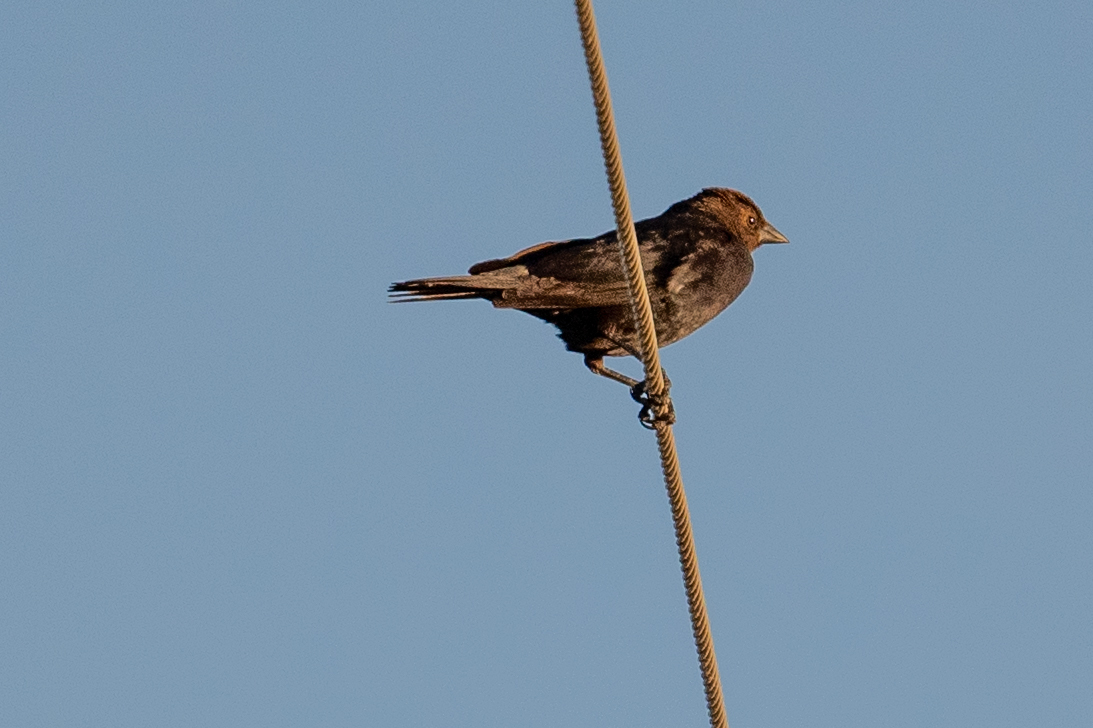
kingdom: Animalia
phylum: Chordata
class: Aves
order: Passeriformes
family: Icteridae
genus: Molothrus
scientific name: Molothrus ater
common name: Brown-headed cowbird
